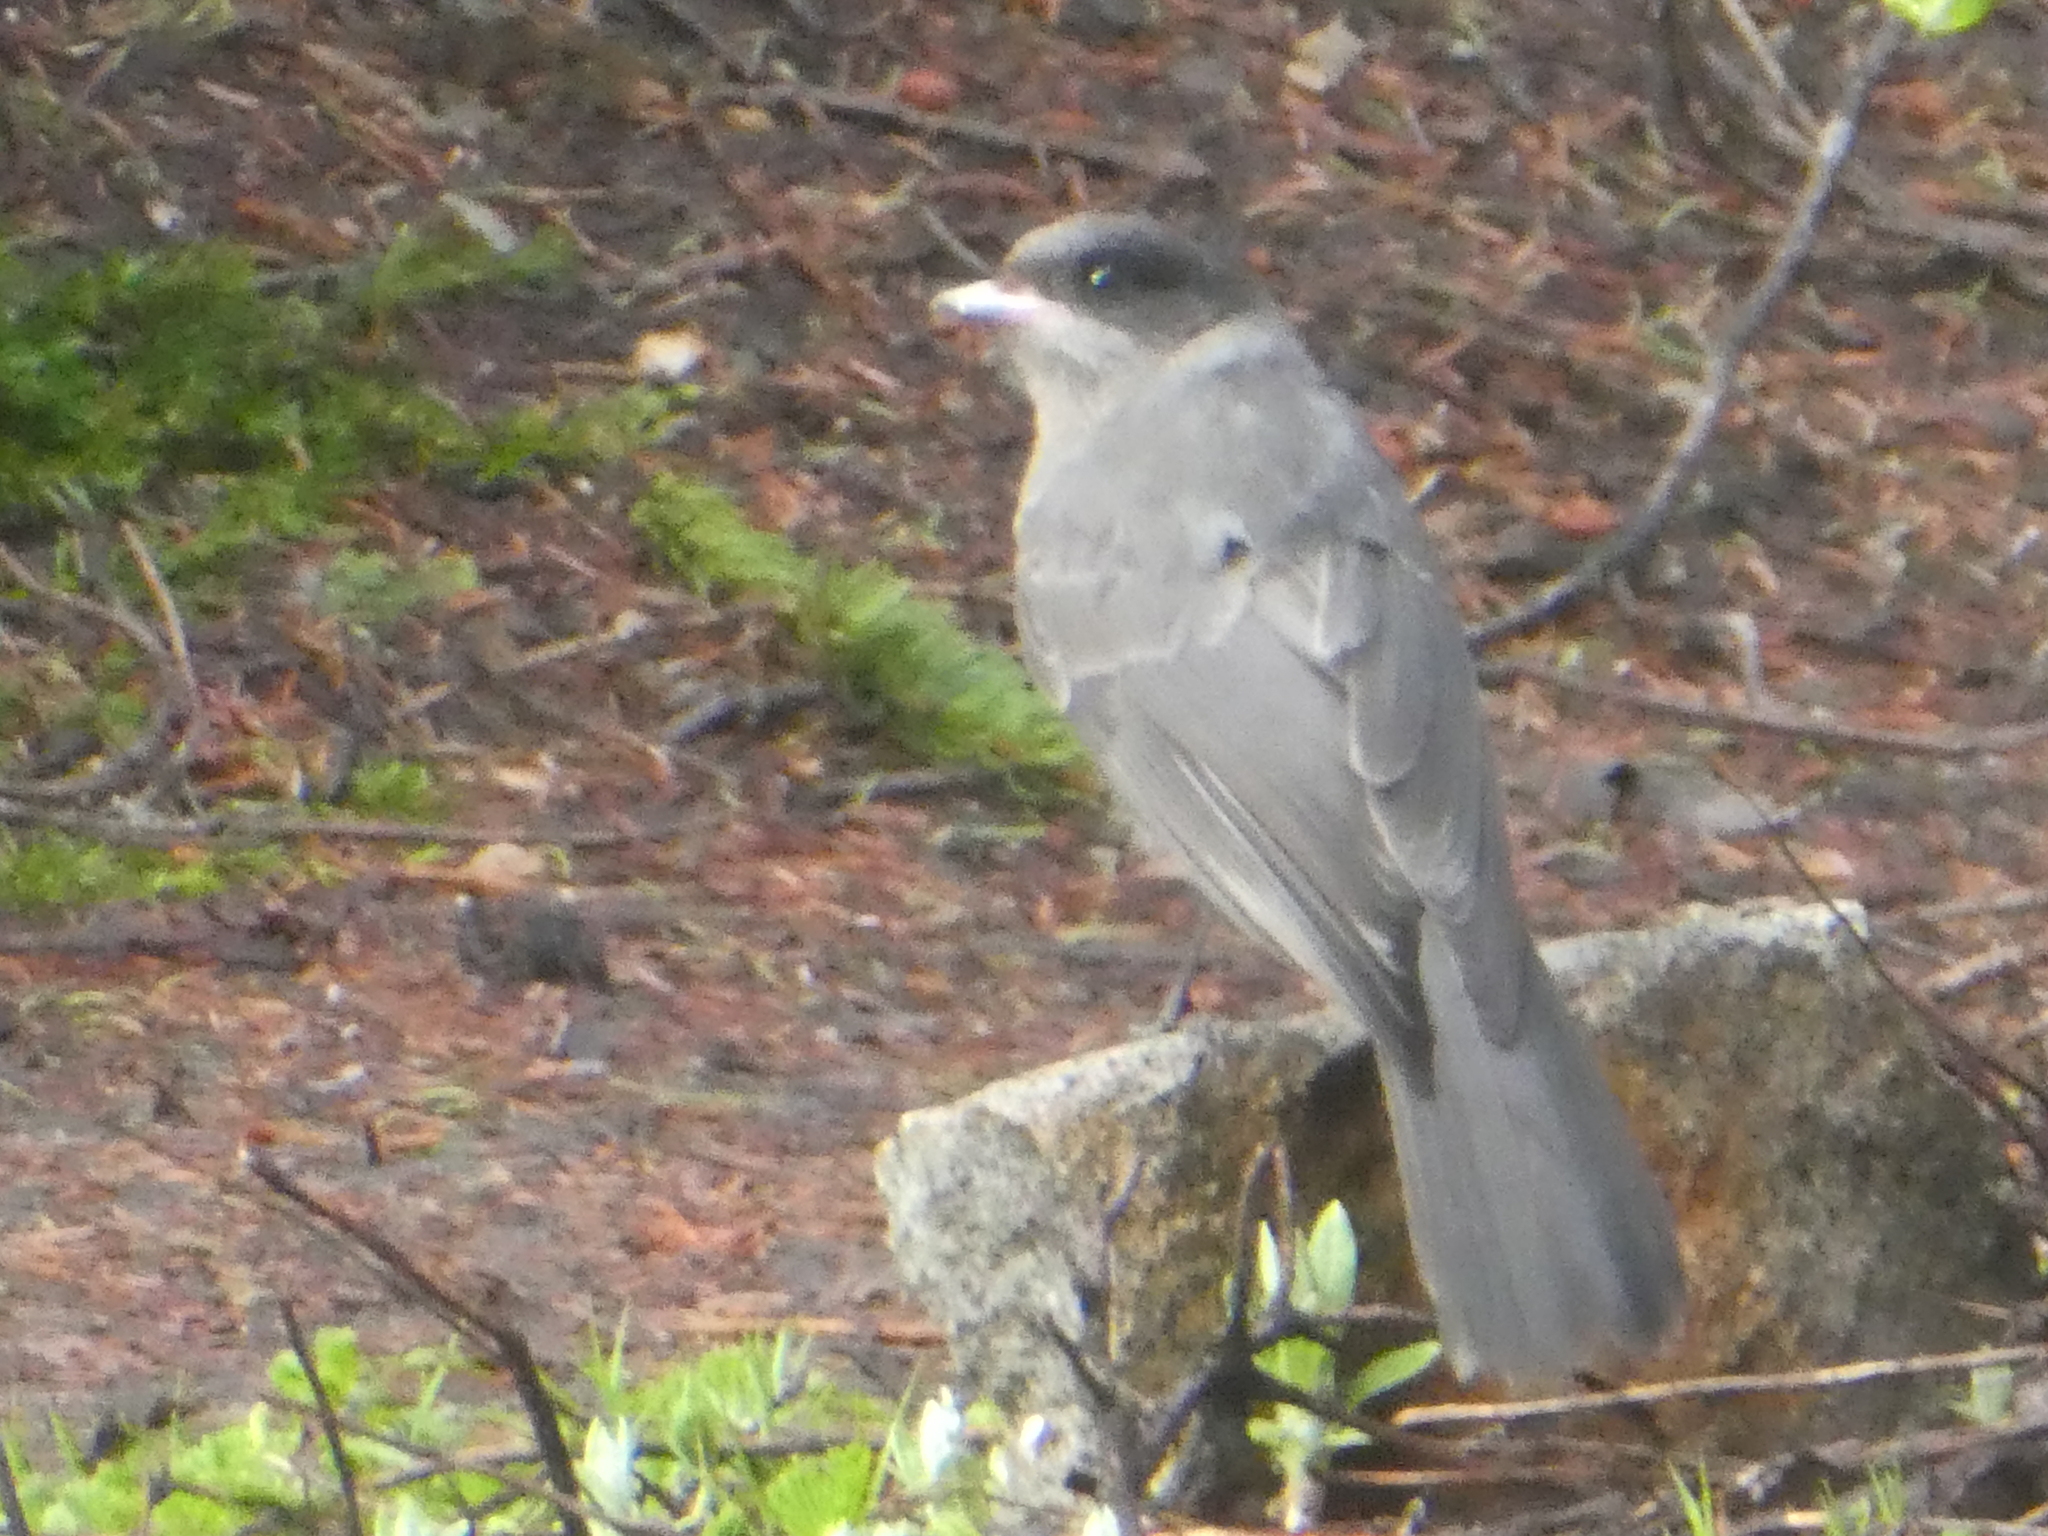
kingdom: Animalia
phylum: Chordata
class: Aves
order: Passeriformes
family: Corvidae
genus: Perisoreus
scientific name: Perisoreus canadensis
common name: Gray jay
